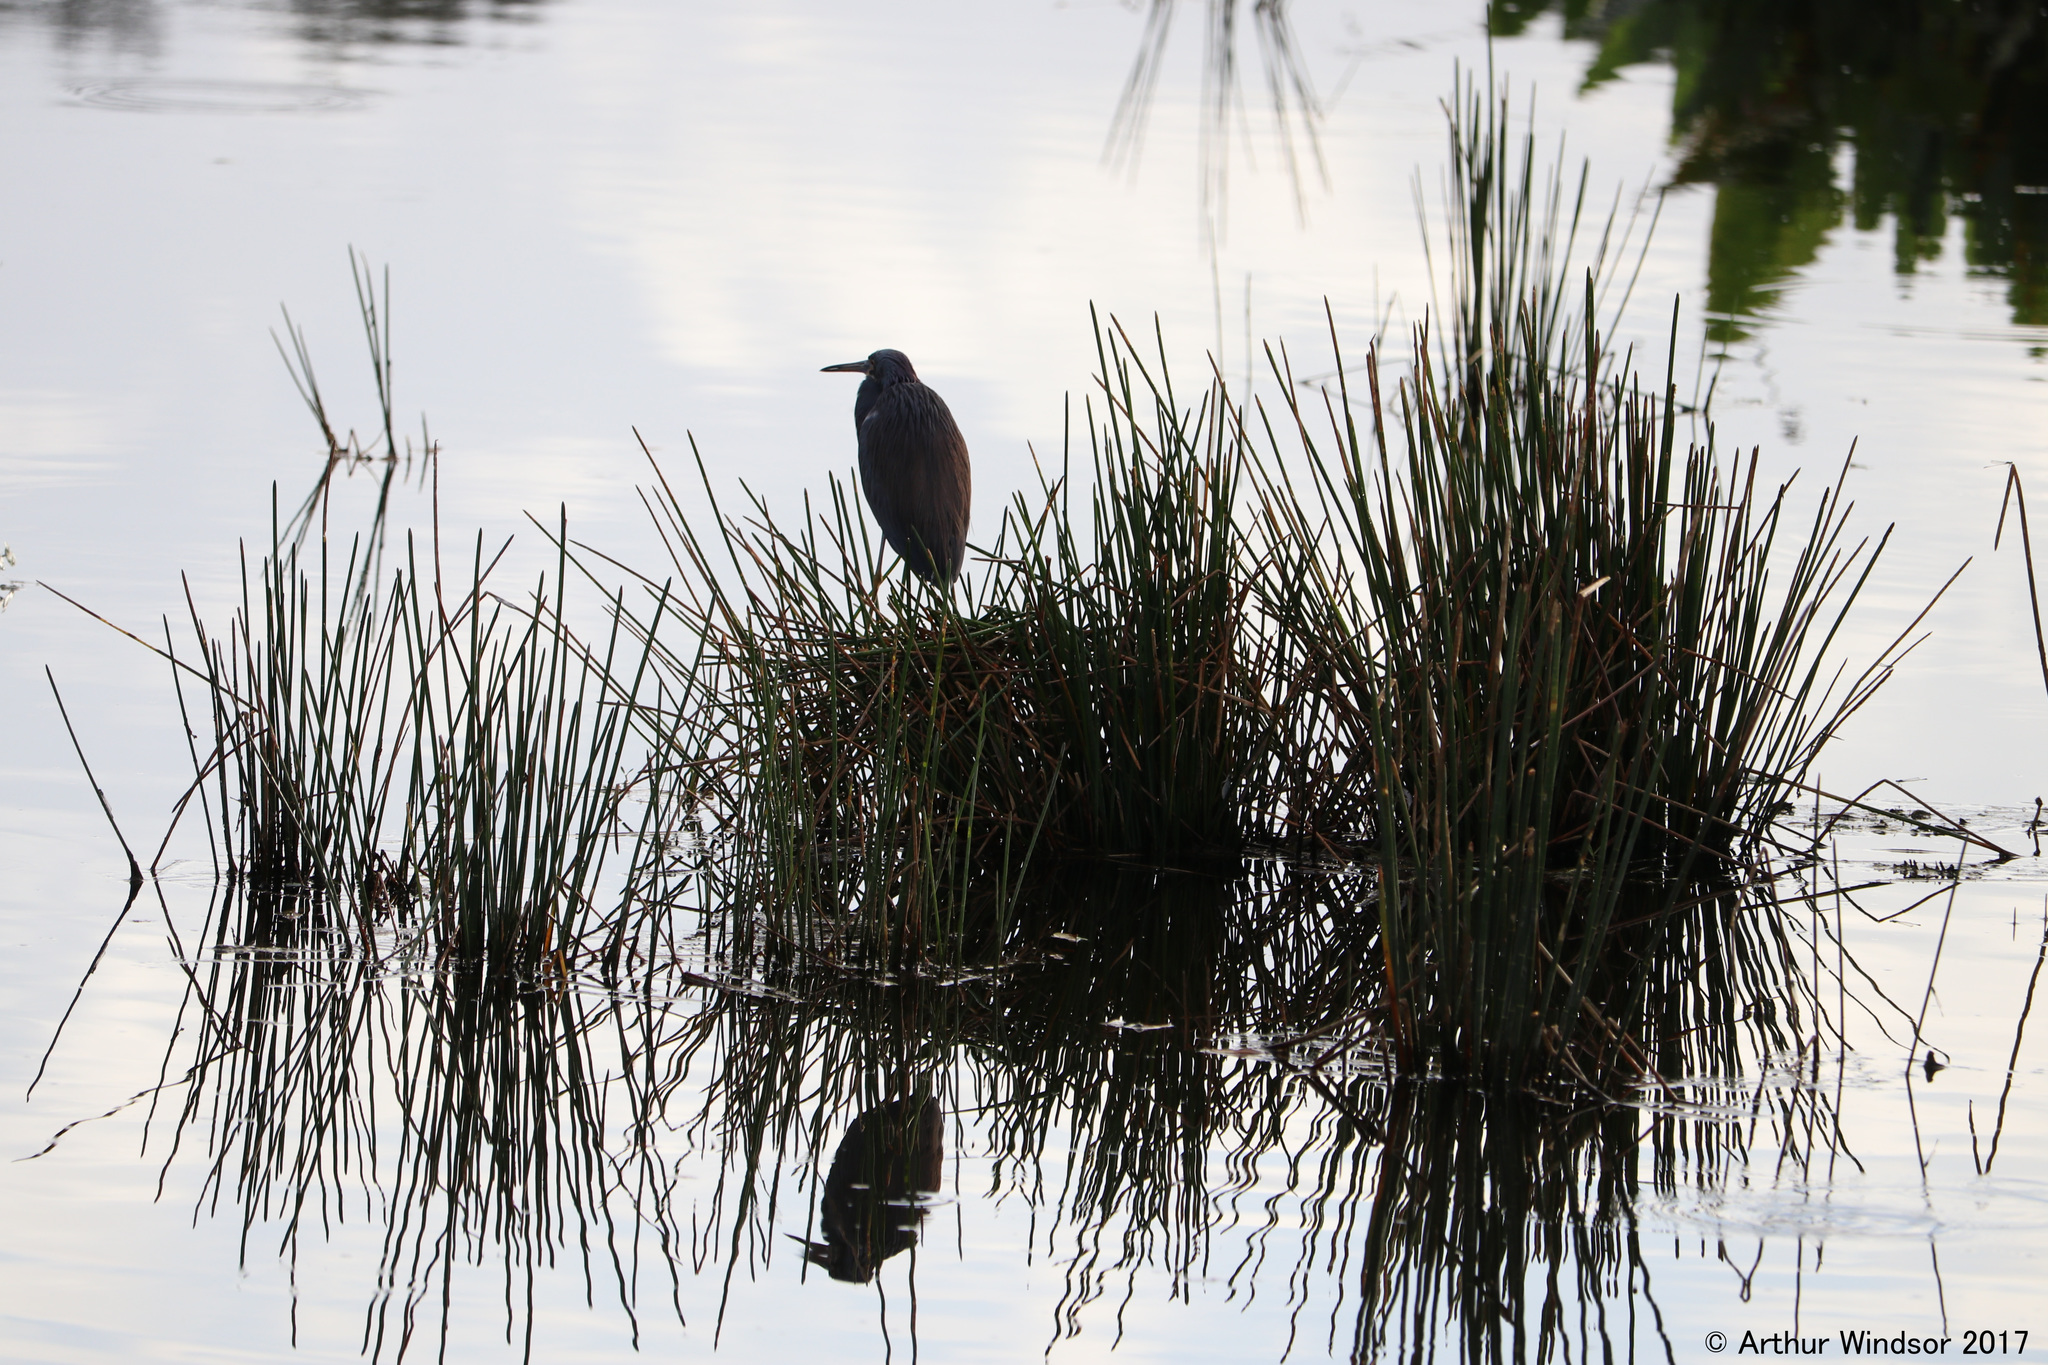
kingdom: Animalia
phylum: Chordata
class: Aves
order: Pelecaniformes
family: Ardeidae
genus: Egretta
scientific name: Egretta tricolor
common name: Tricolored heron
